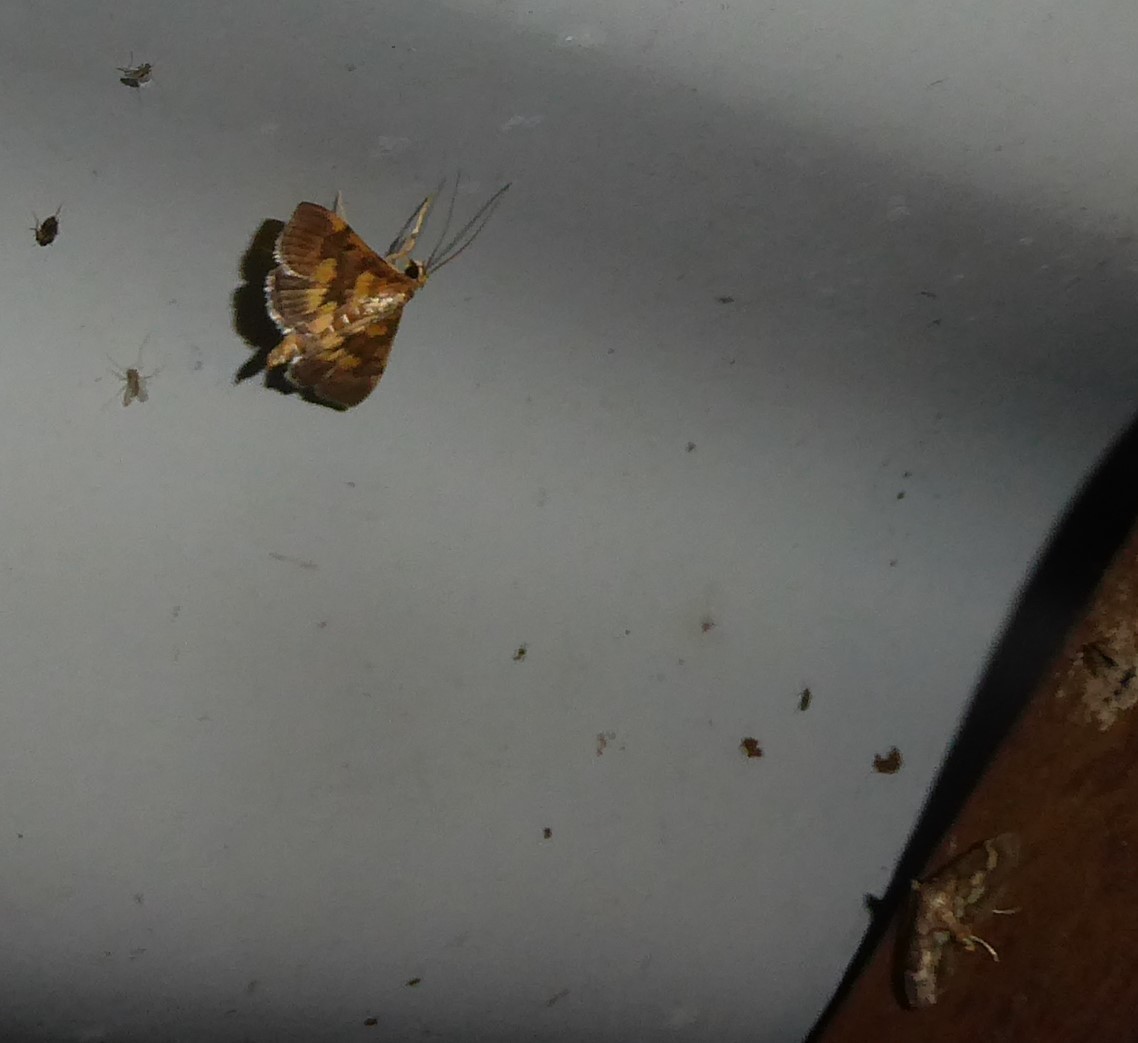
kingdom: Animalia
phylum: Arthropoda
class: Insecta
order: Lepidoptera
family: Crambidae
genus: Omiodes
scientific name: Omiodes diemenalis
